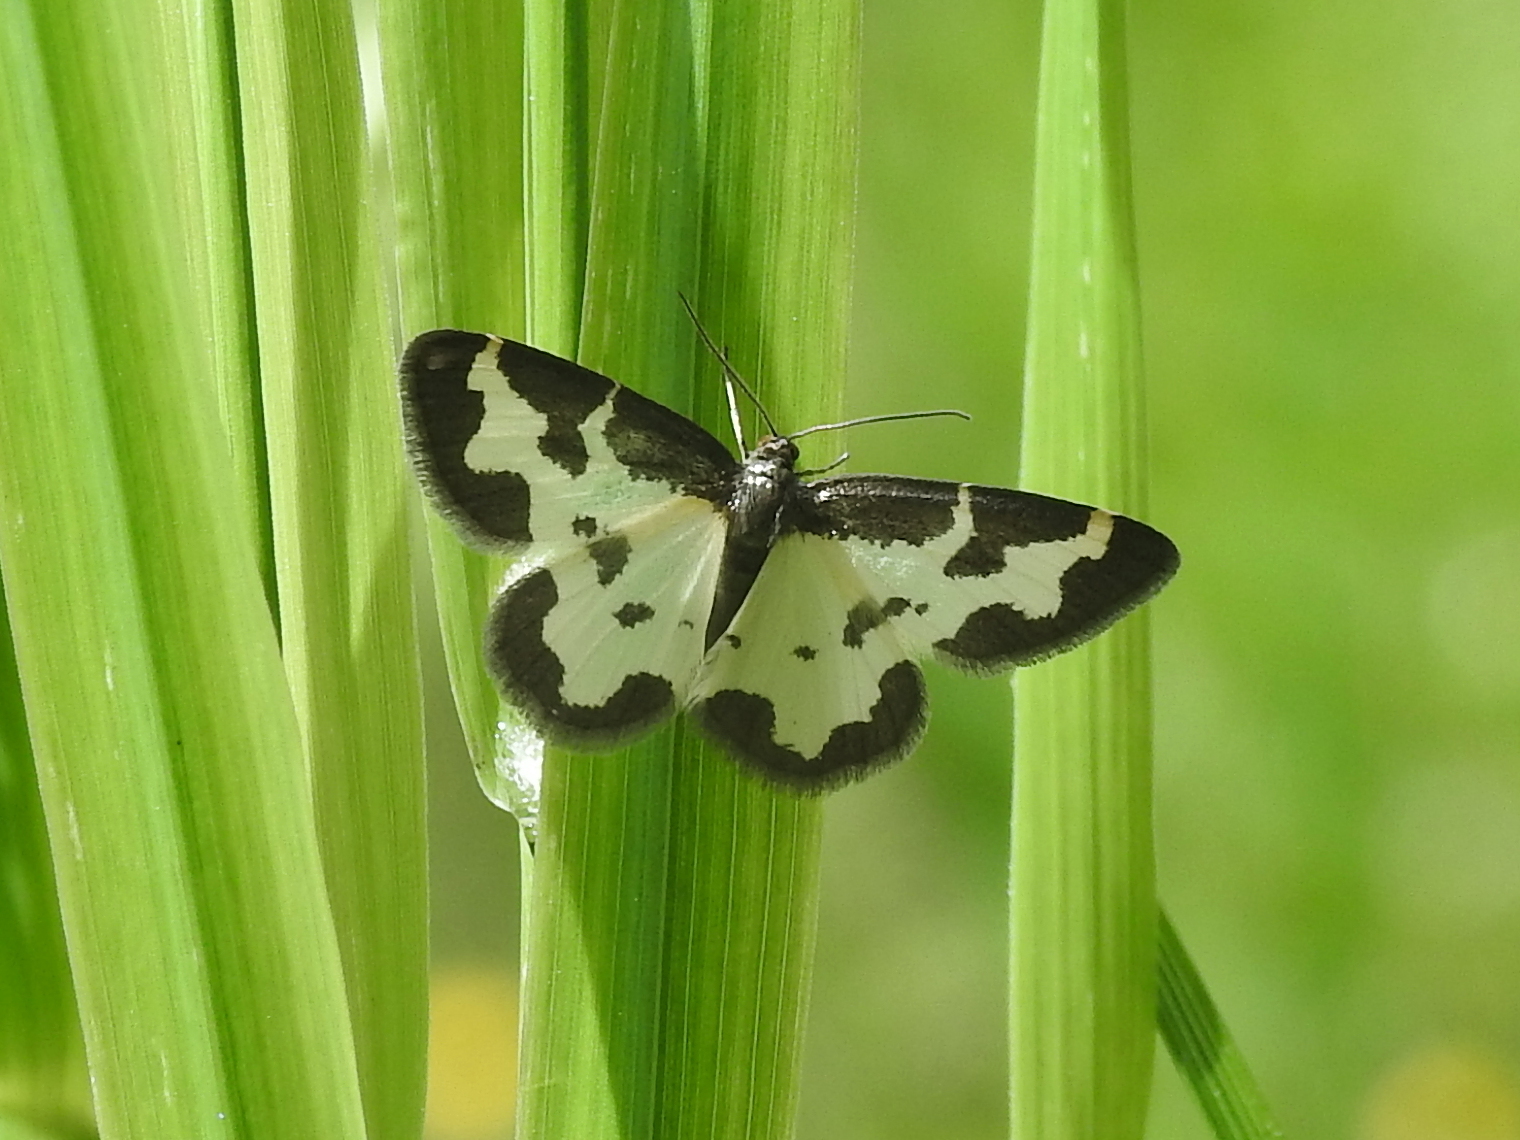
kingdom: Animalia
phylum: Arthropoda
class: Insecta
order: Lepidoptera
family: Geometridae
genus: Lomaspilis
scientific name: Lomaspilis marginata
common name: Clouded border
